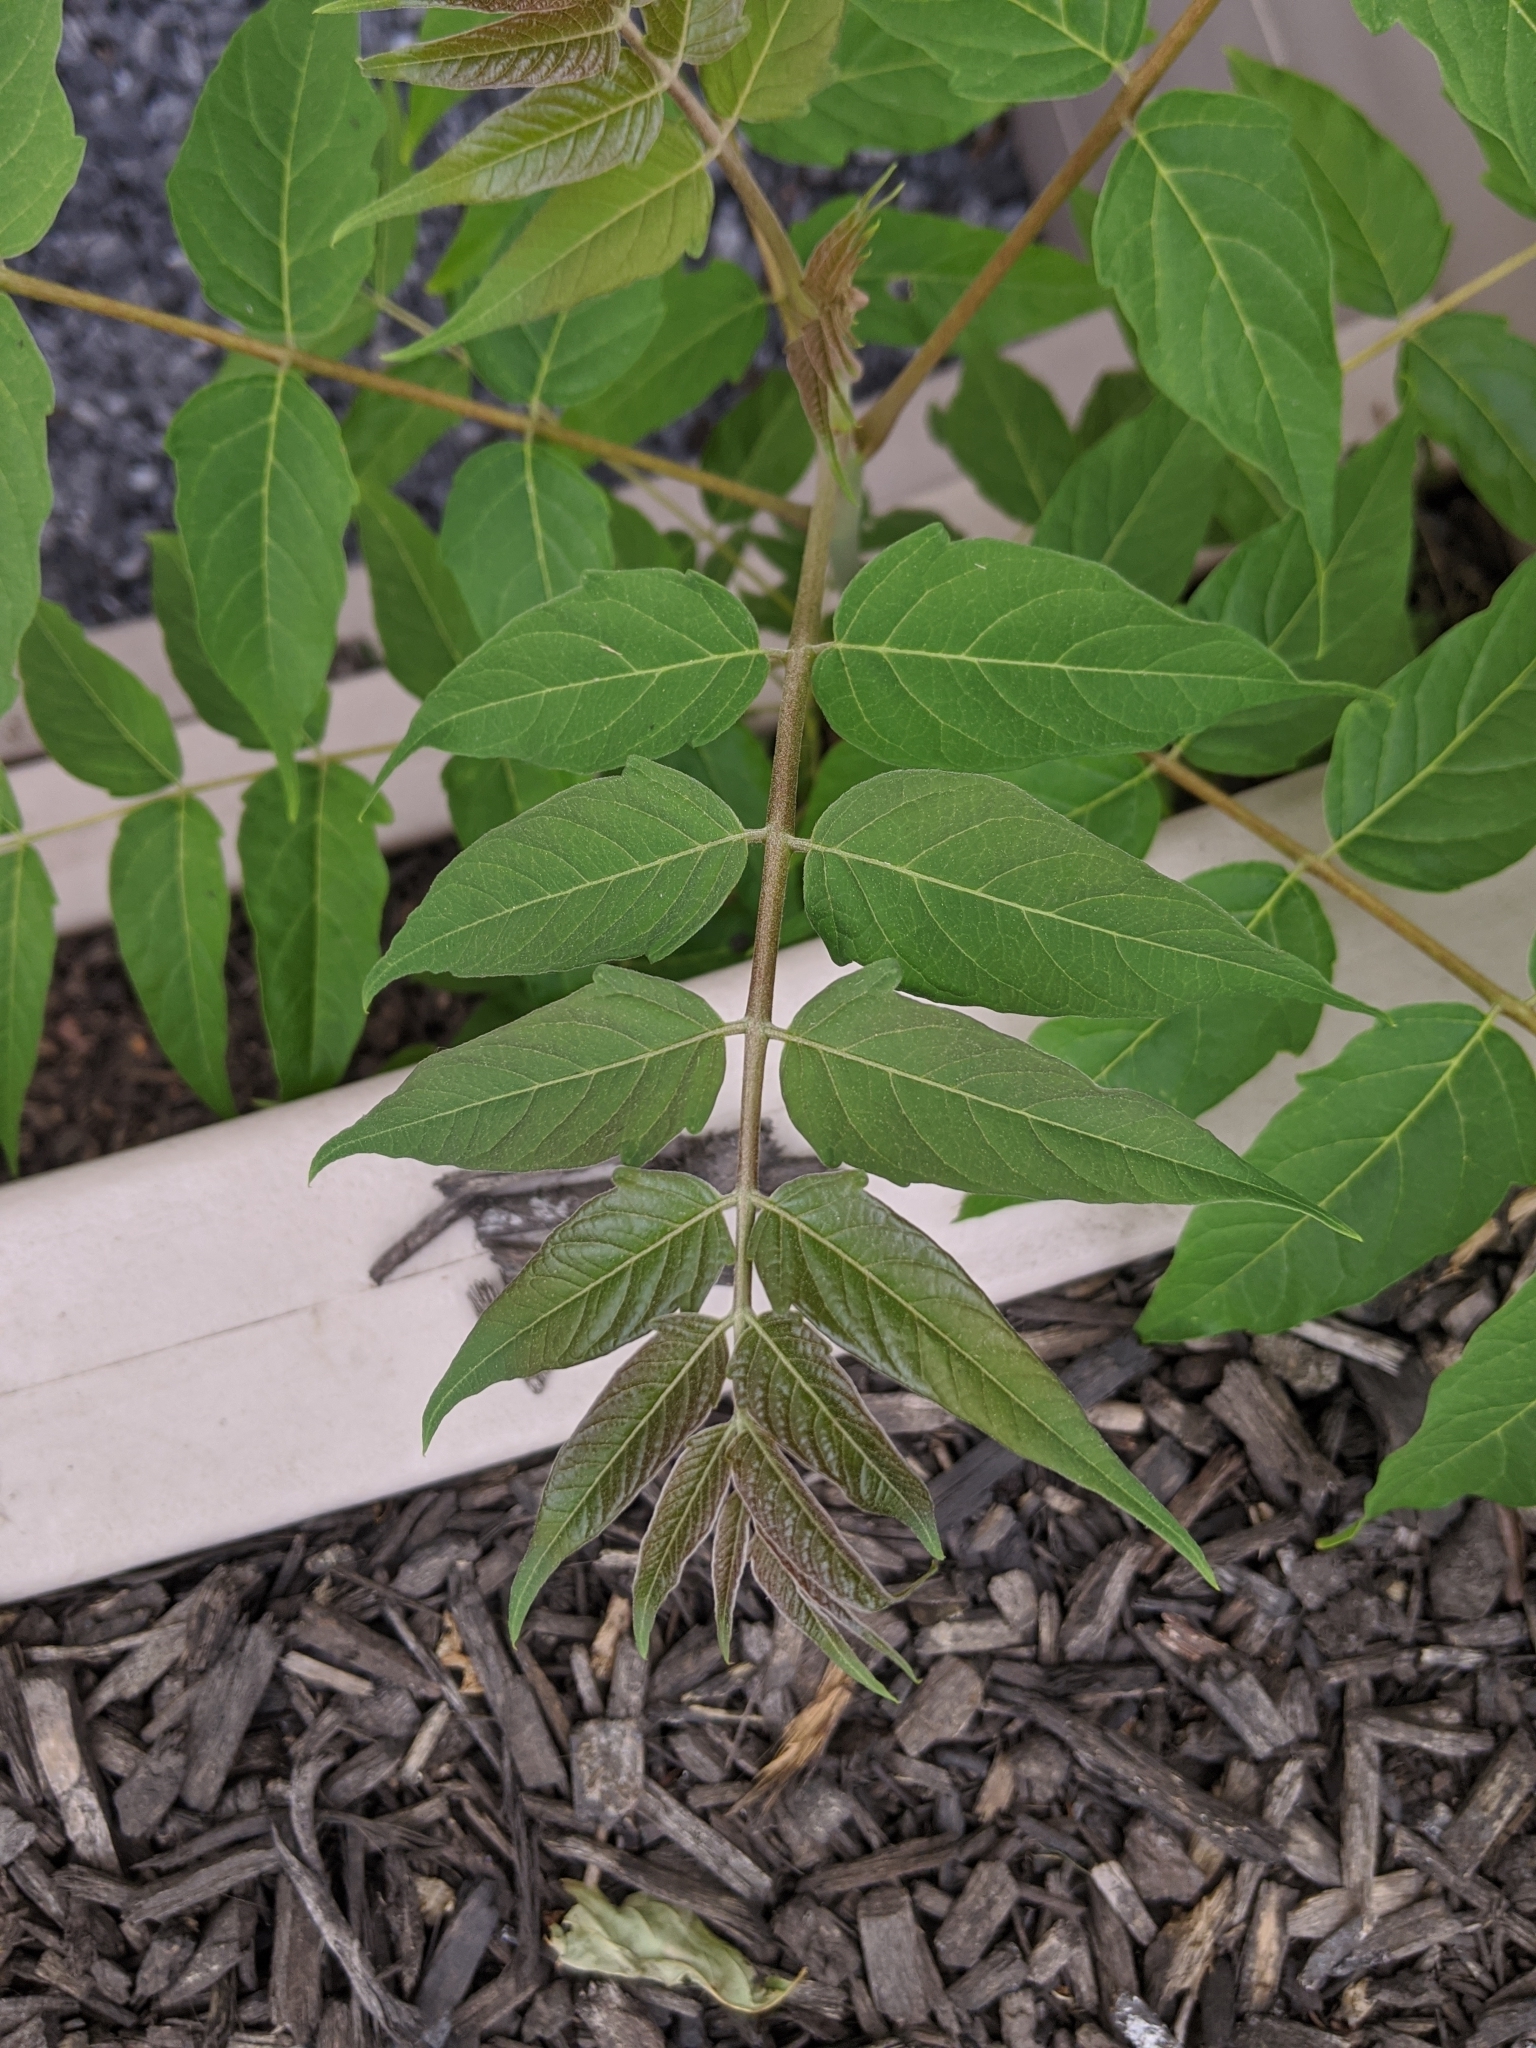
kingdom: Plantae
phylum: Tracheophyta
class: Magnoliopsida
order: Sapindales
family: Simaroubaceae
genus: Ailanthus
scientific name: Ailanthus altissima
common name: Tree-of-heaven
